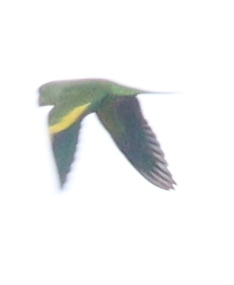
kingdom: Animalia
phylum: Chordata
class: Aves
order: Psittaciformes
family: Psittacidae
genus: Brotogeris
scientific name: Brotogeris chiriri
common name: Yellow-chevroned parakeet
